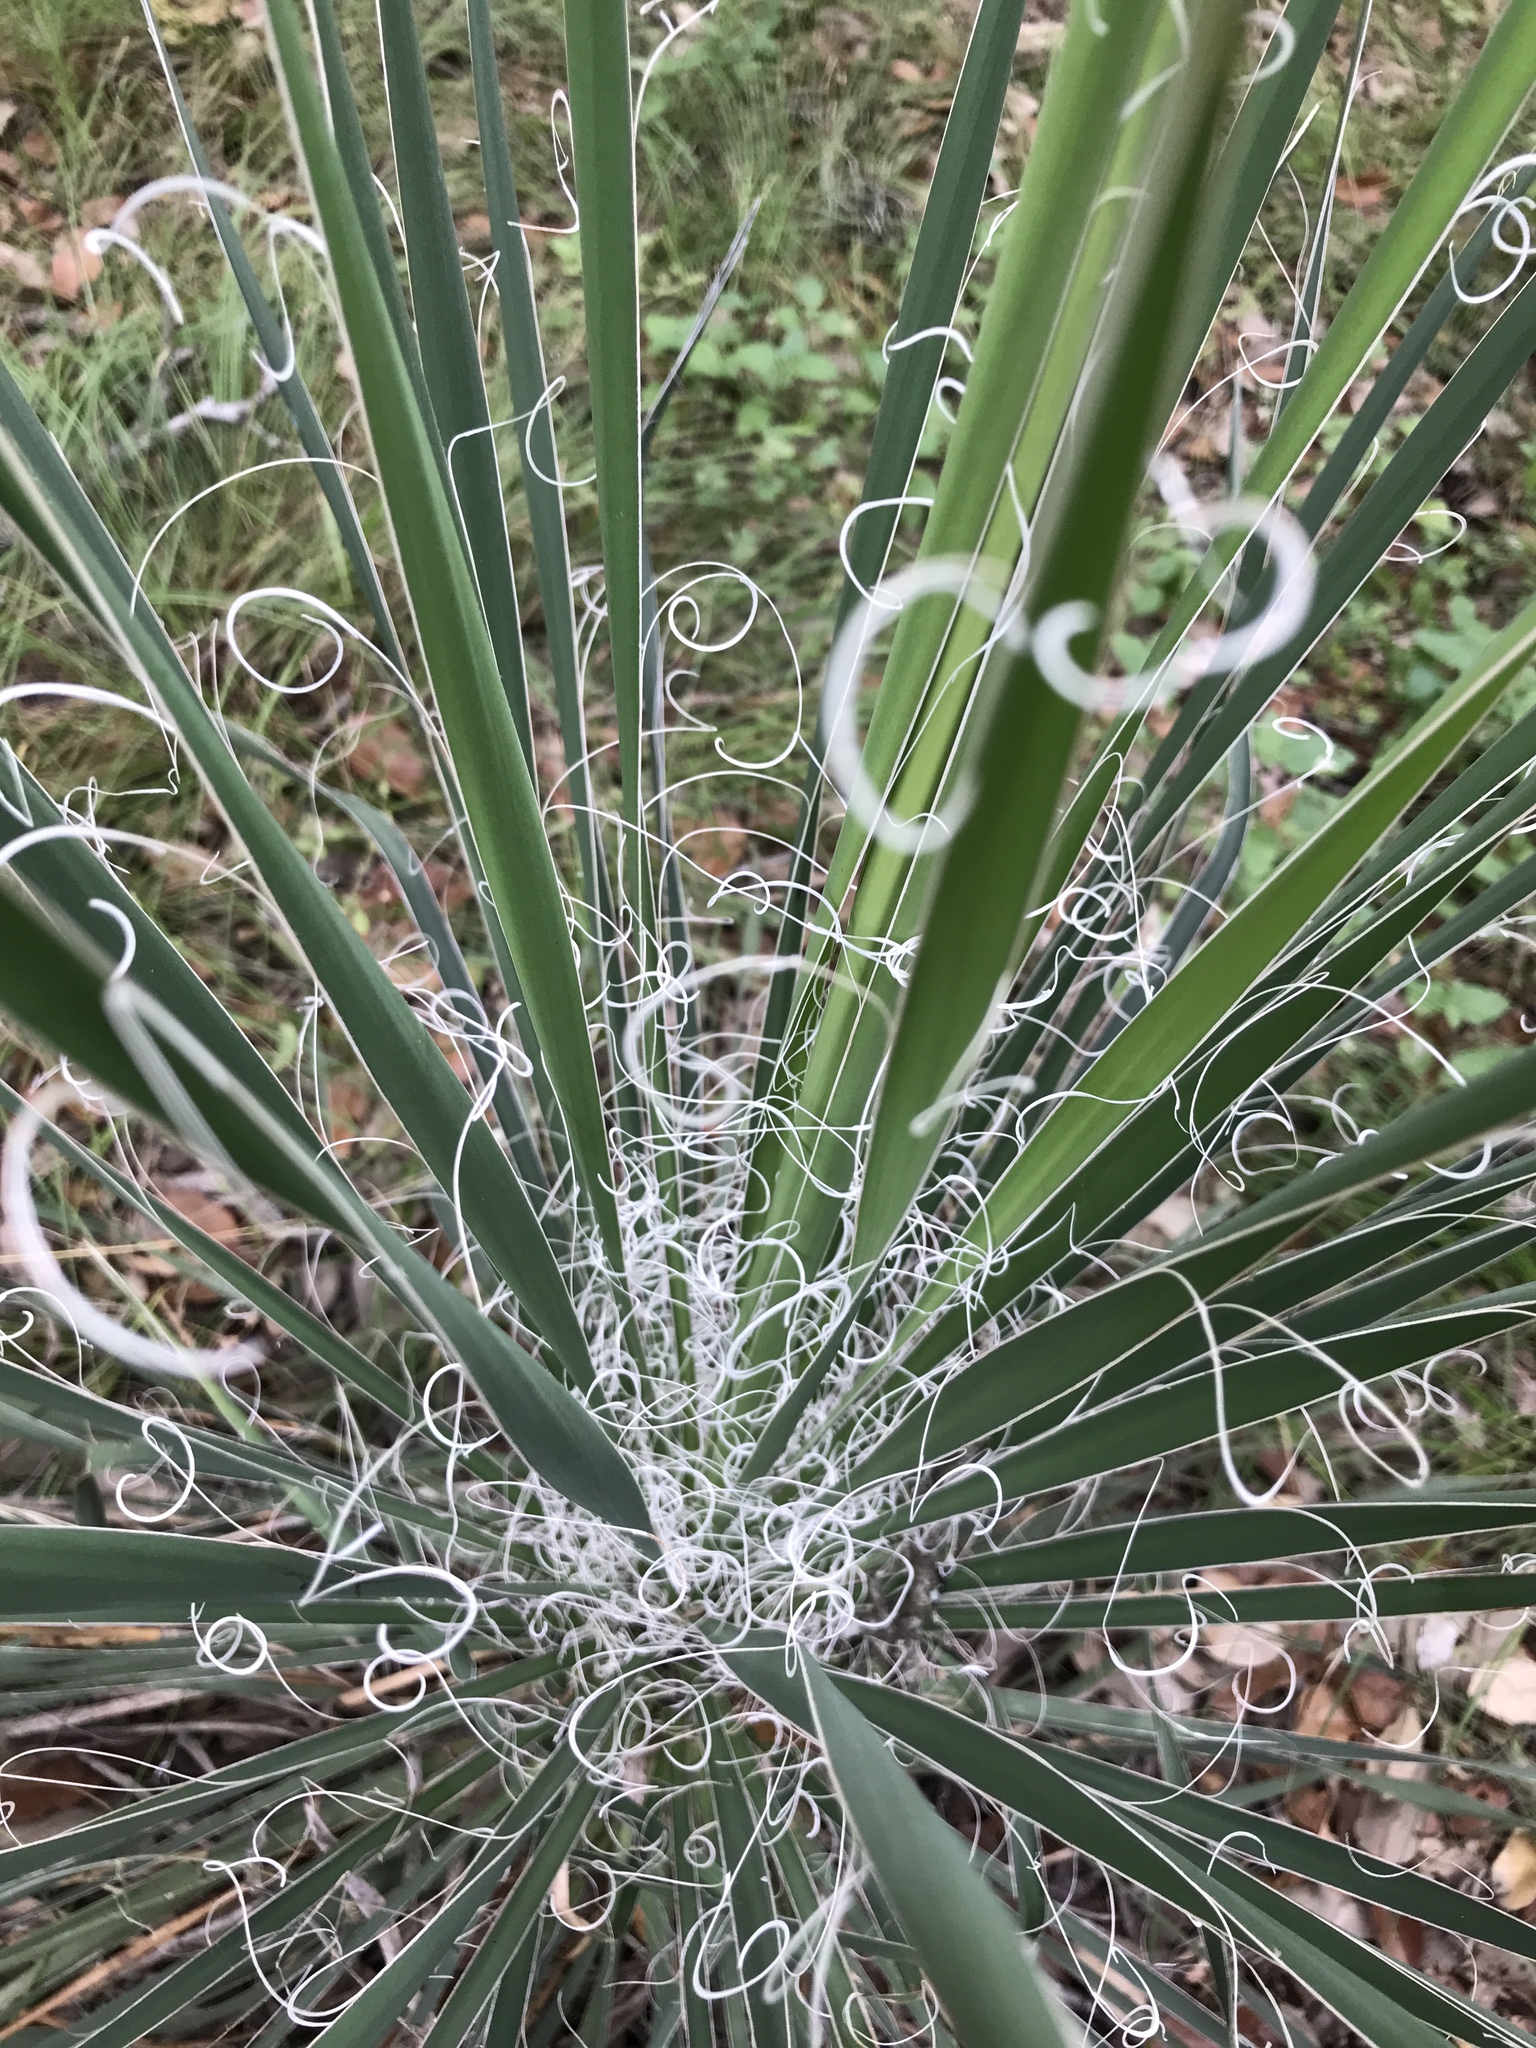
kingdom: Plantae
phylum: Tracheophyta
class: Liliopsida
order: Asparagales
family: Asparagaceae
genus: Yucca
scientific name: Yucca constricta
